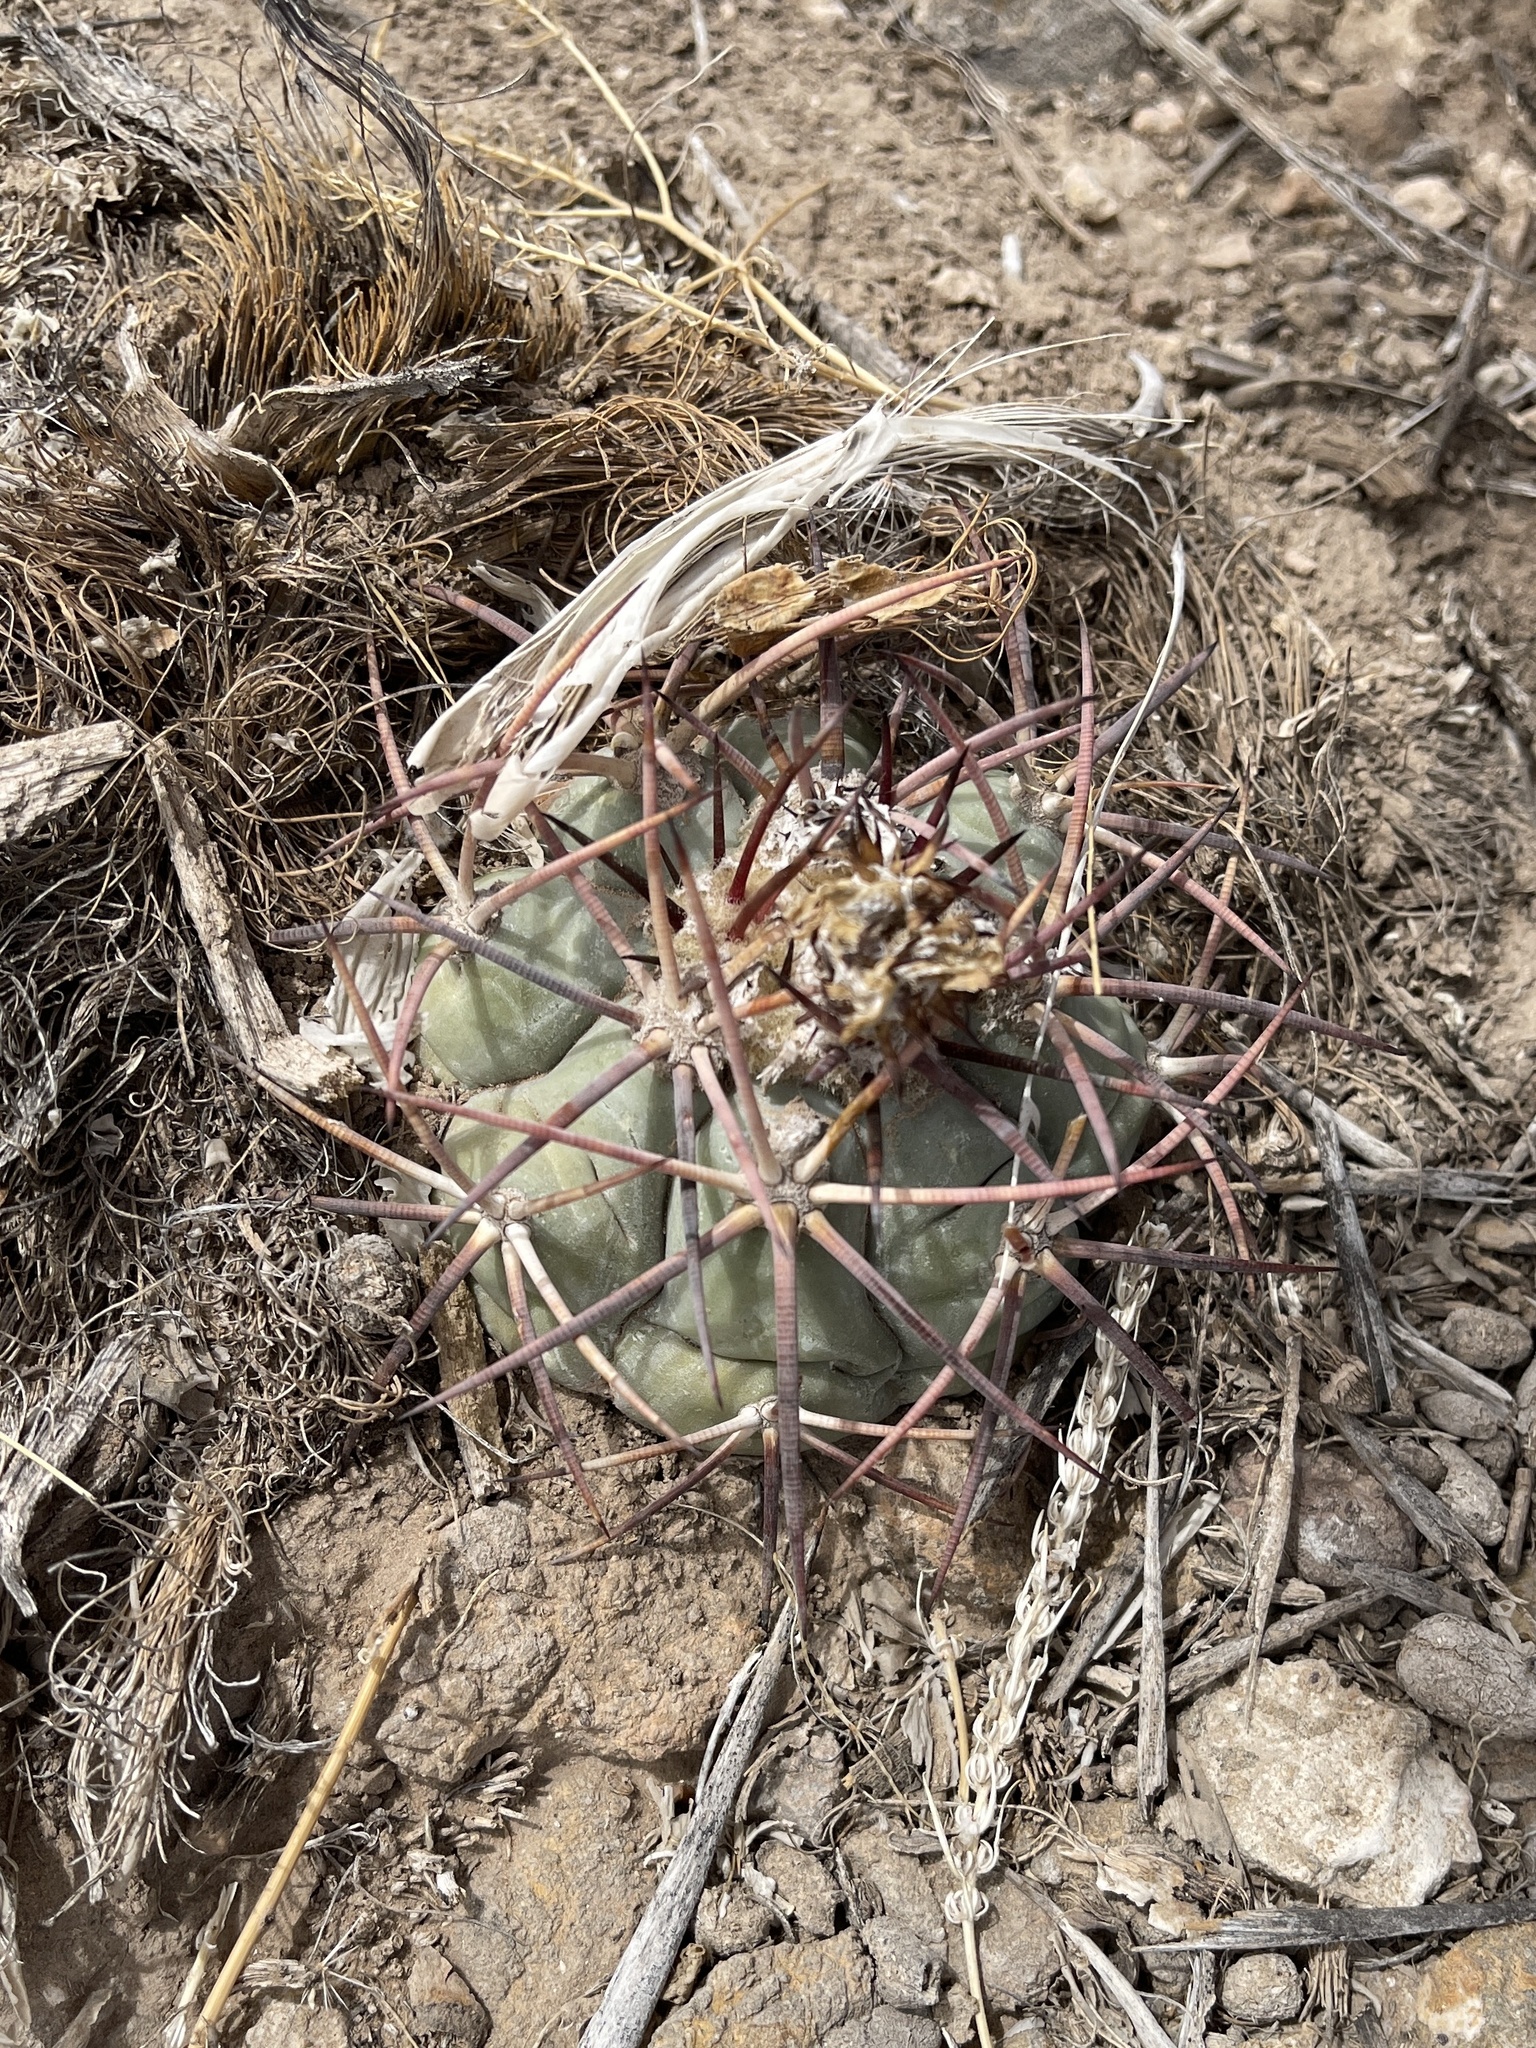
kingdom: Plantae
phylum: Tracheophyta
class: Magnoliopsida
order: Caryophyllales
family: Cactaceae
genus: Echinocactus
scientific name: Echinocactus horizonthalonius
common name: Devilshead
